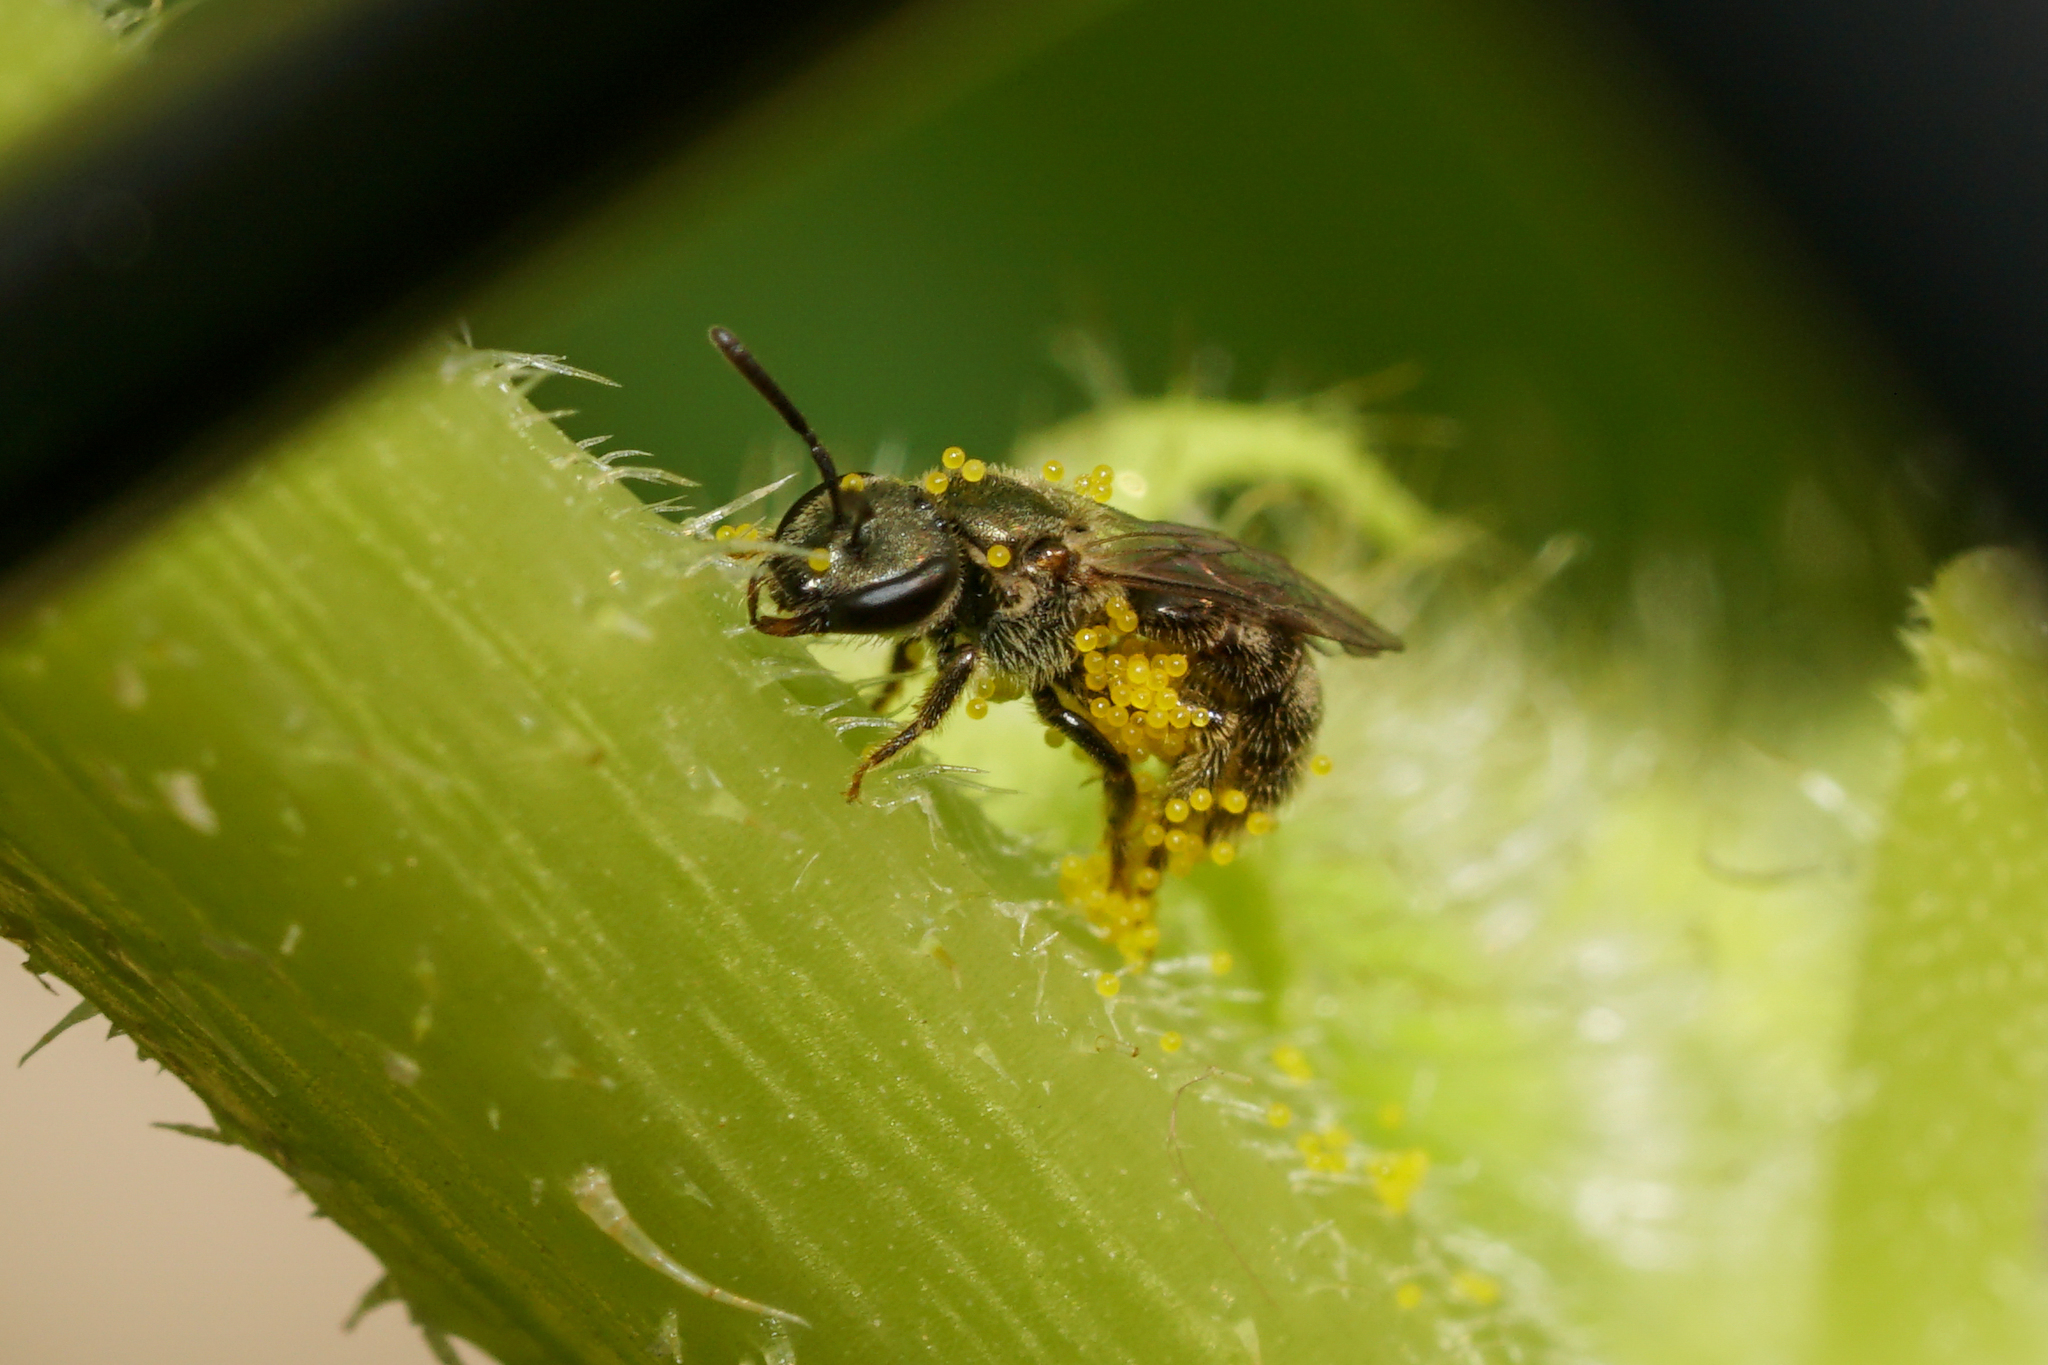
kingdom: Animalia
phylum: Arthropoda
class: Insecta
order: Hymenoptera
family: Halictidae
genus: Dialictus
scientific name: Dialictus
